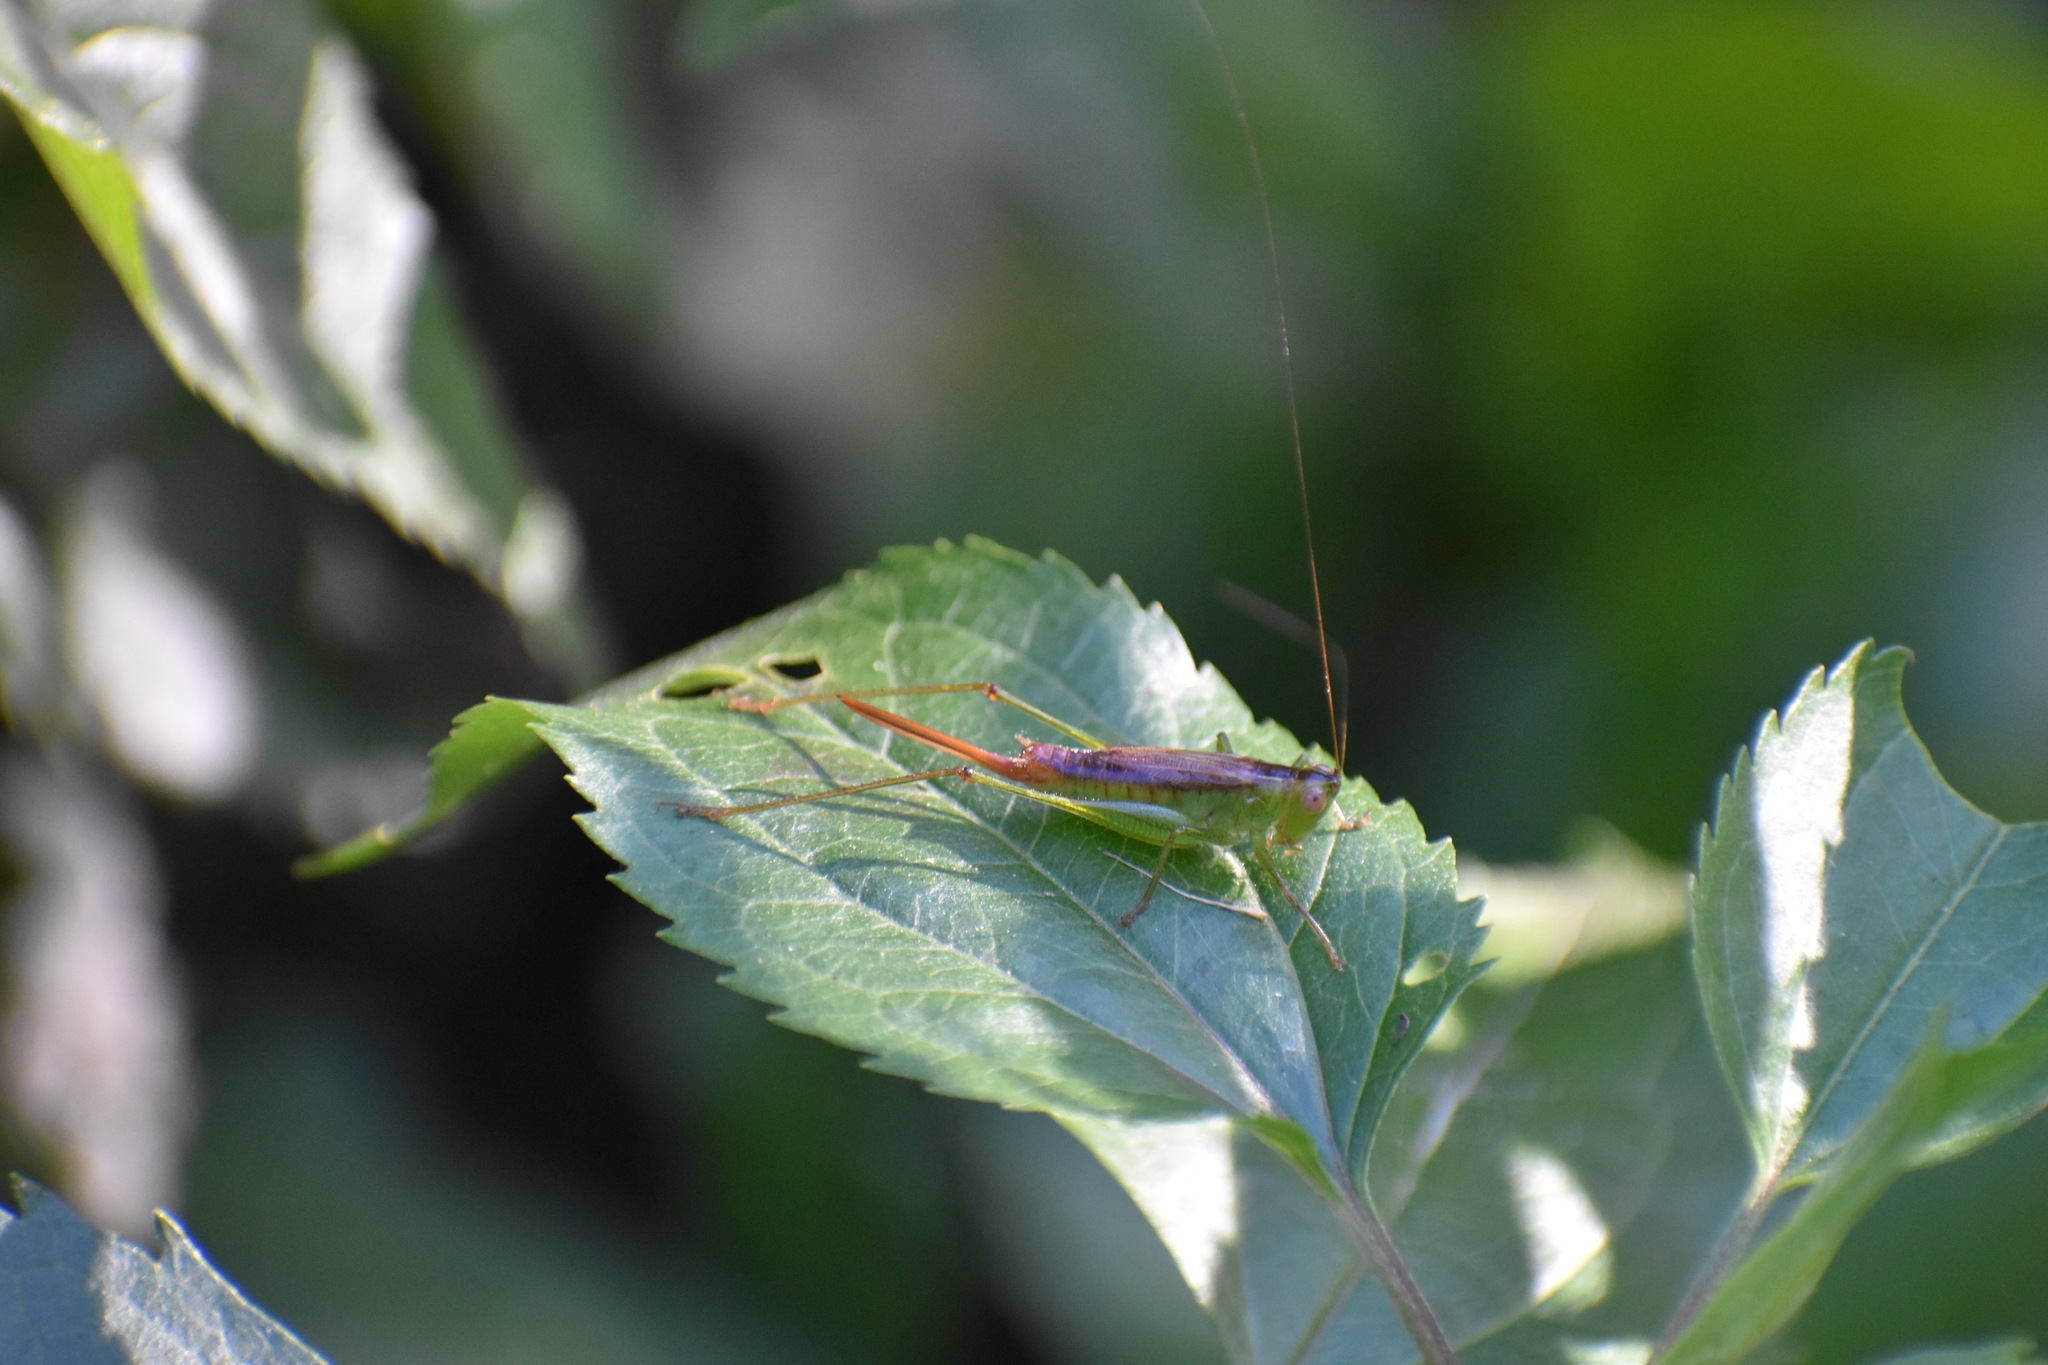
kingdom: Animalia
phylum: Arthropoda
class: Insecta
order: Orthoptera
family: Tettigoniidae
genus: Conocephalus
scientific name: Conocephalus brevipennis
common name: Short-winged meadow katydid
